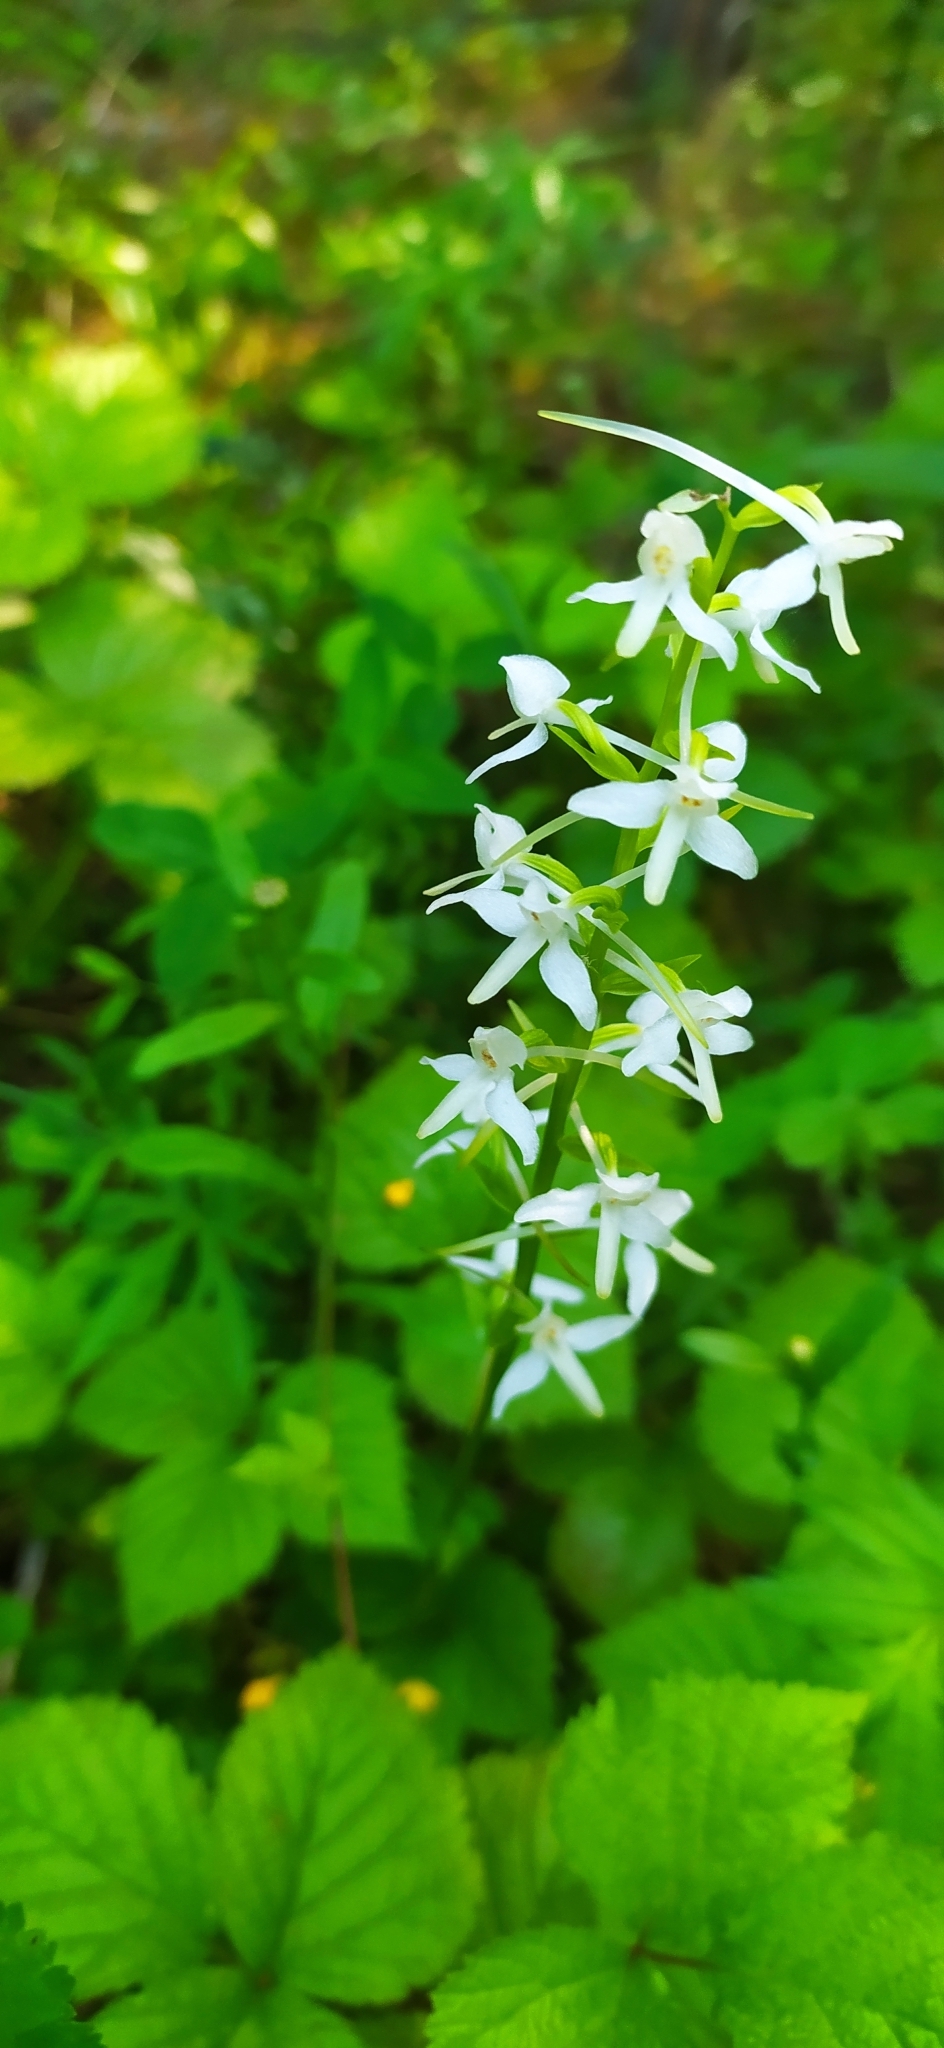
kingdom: Plantae
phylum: Tracheophyta
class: Liliopsida
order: Asparagales
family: Orchidaceae
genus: Platanthera
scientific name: Platanthera bifolia
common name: Lesser butterfly-orchid
